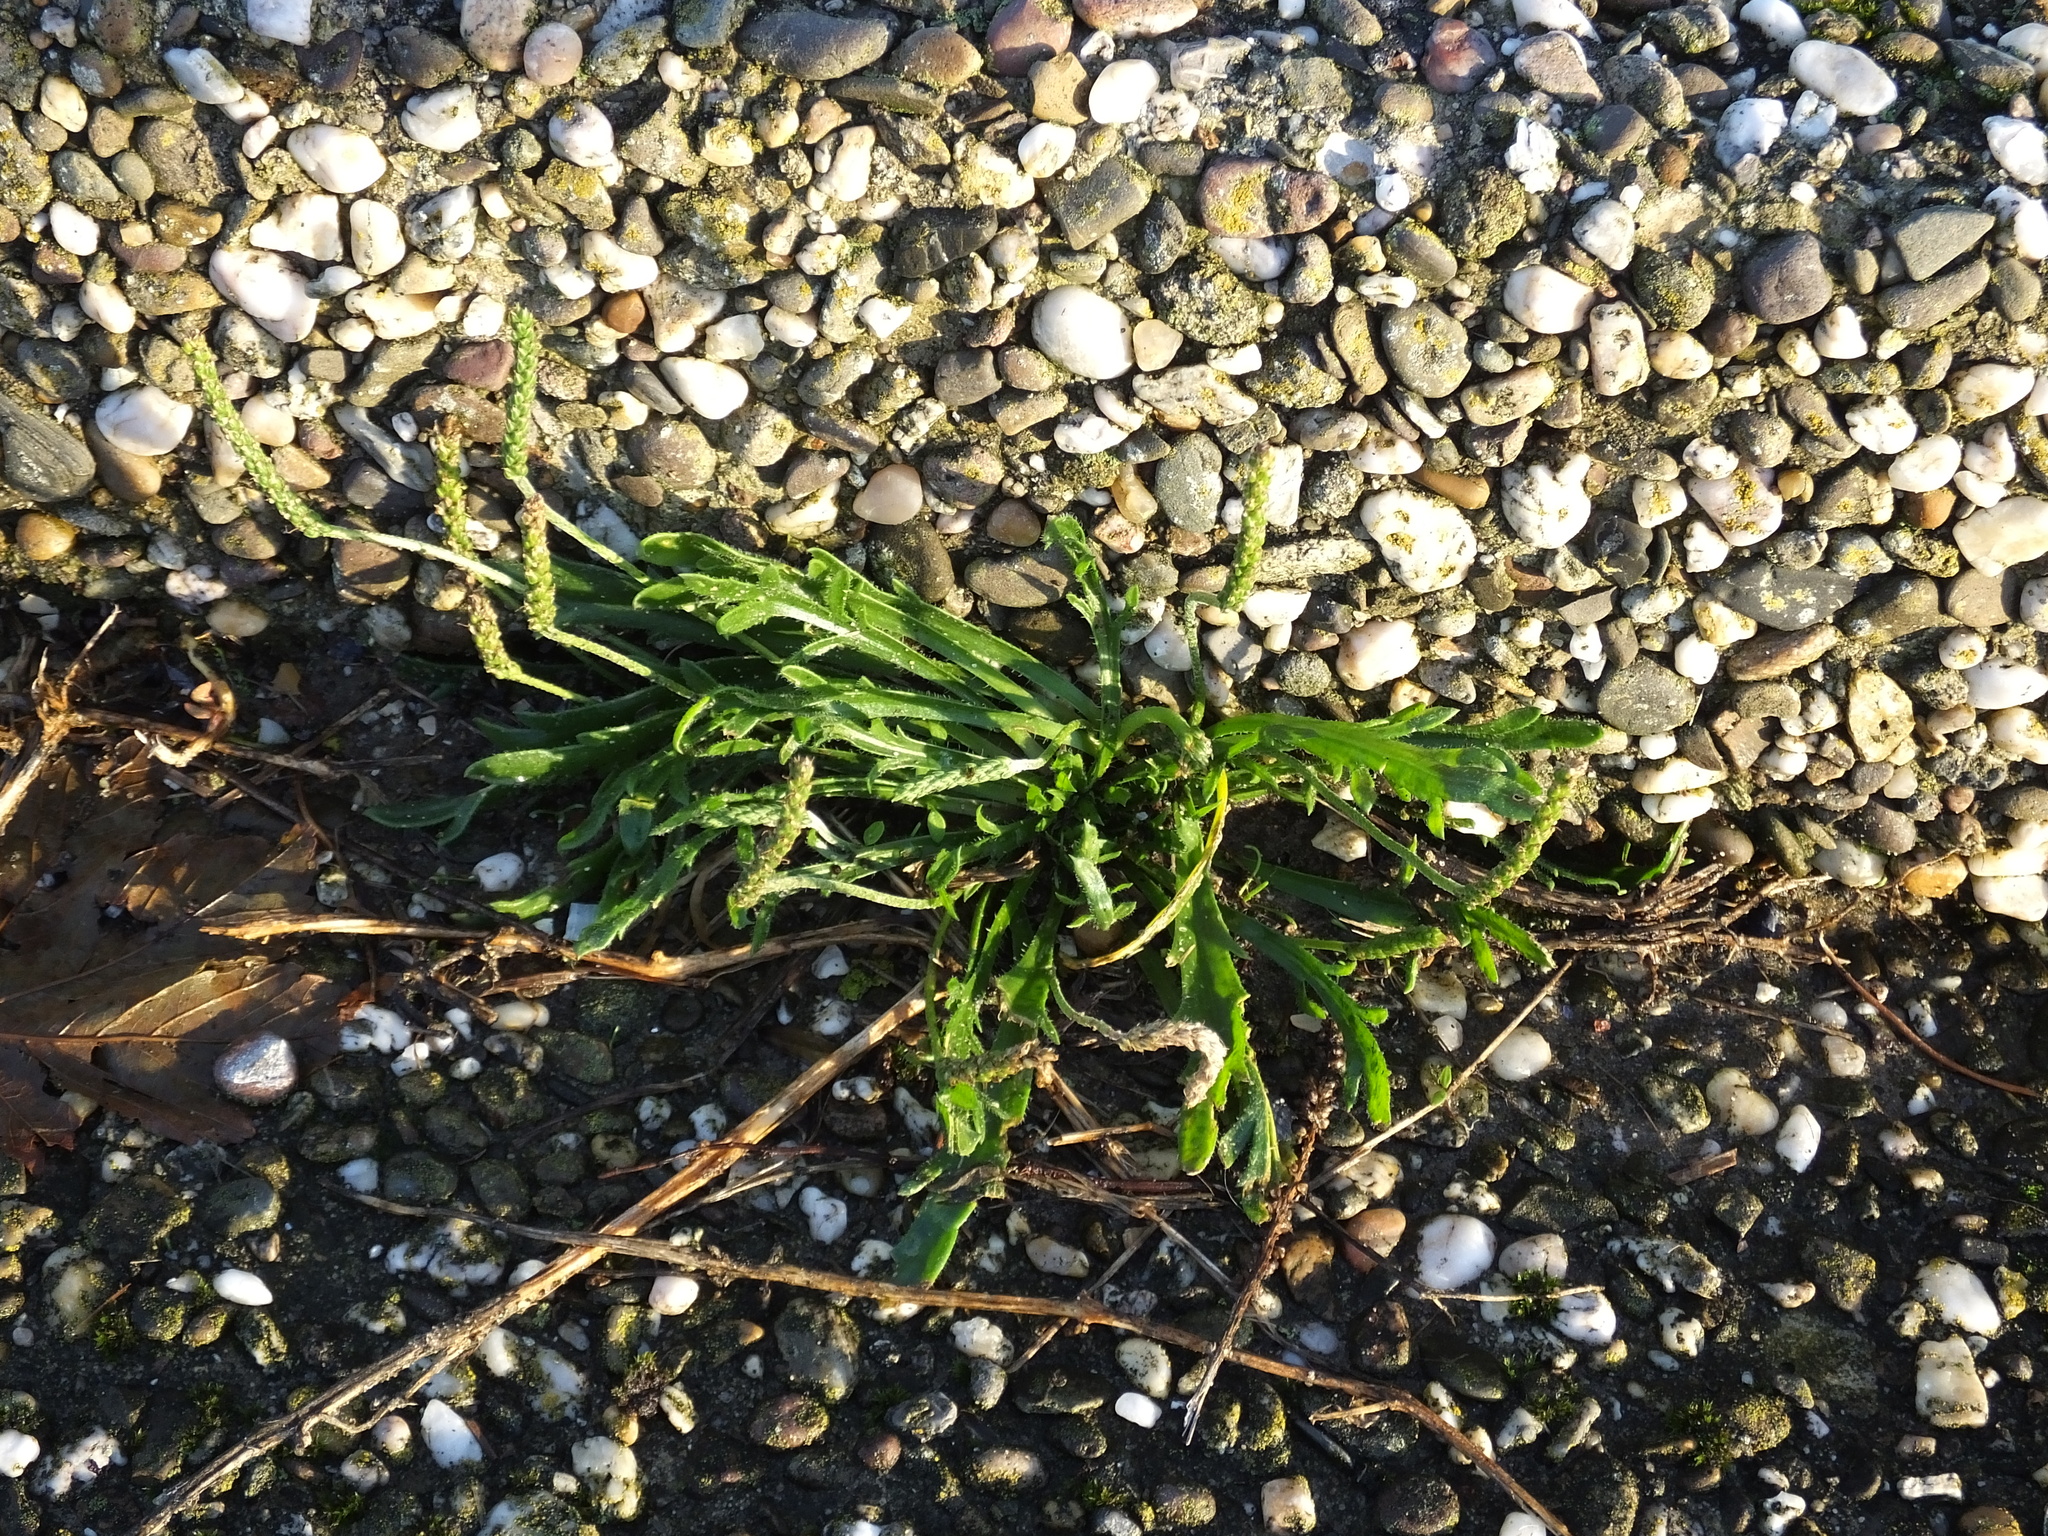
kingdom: Plantae
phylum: Tracheophyta
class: Magnoliopsida
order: Lamiales
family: Plantaginaceae
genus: Plantago
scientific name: Plantago coronopus
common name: Buck's-horn plantain
